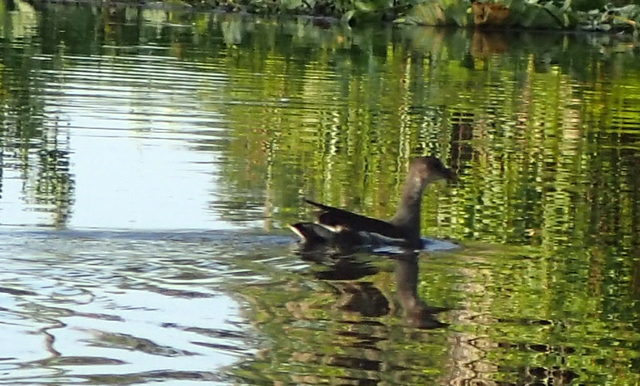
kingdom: Animalia
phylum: Chordata
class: Aves
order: Gruiformes
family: Rallidae
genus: Gallinula
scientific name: Gallinula chloropus
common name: Common moorhen
